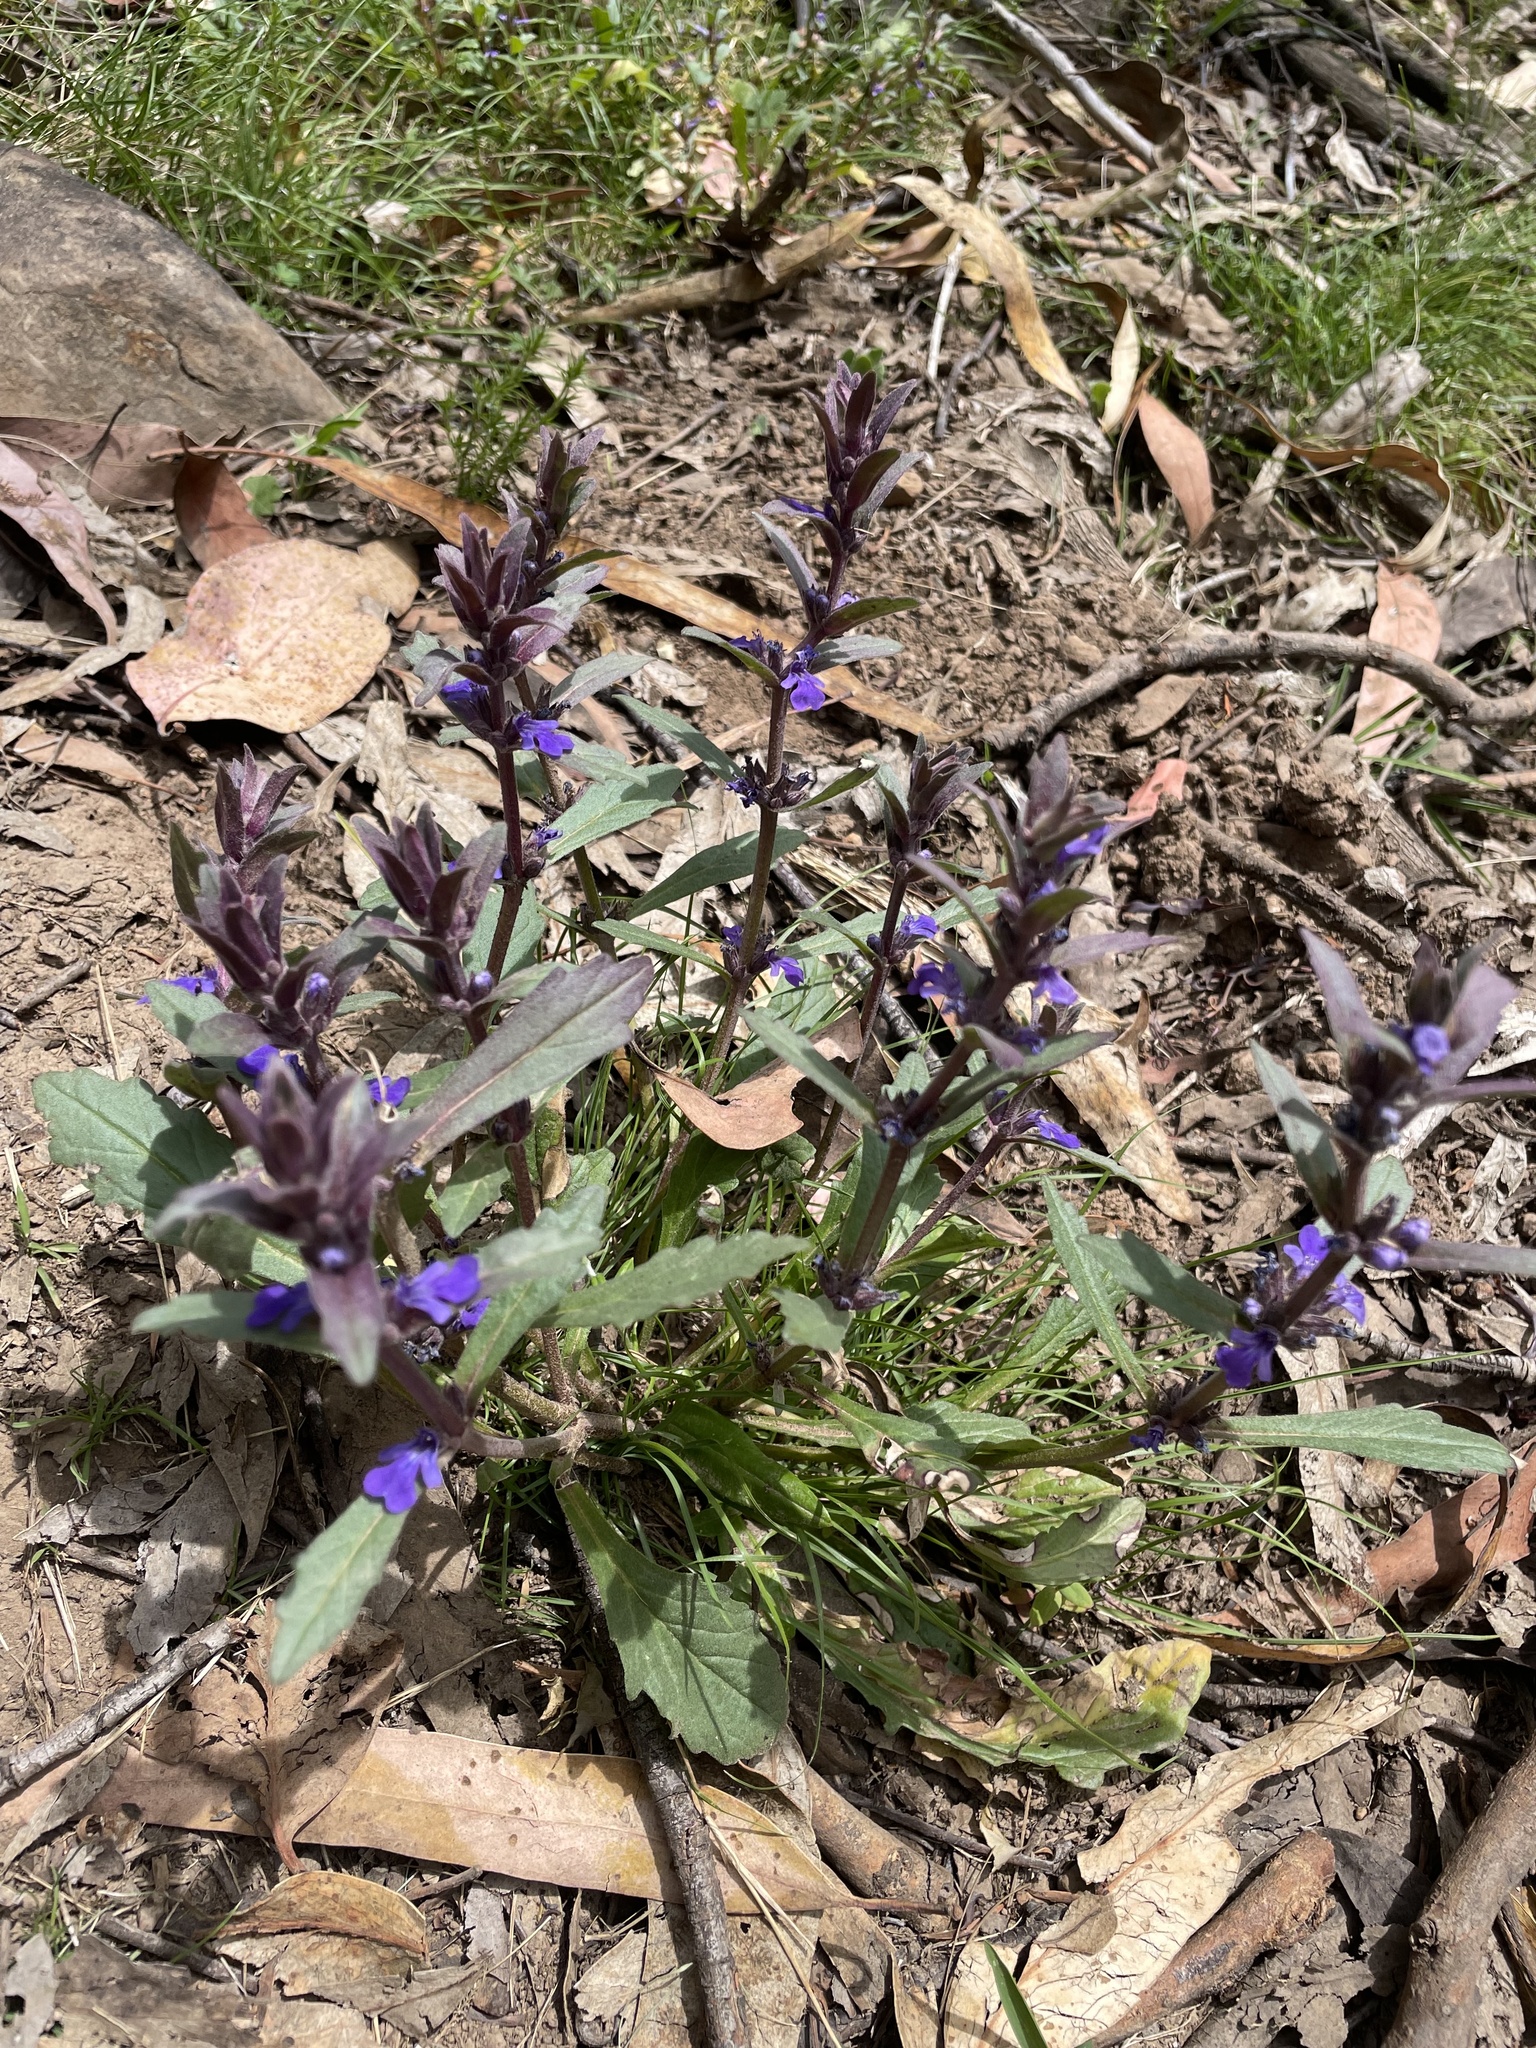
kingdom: Plantae
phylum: Tracheophyta
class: Magnoliopsida
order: Lamiales
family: Lamiaceae
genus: Ajuga
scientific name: Ajuga australis
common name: Australian bugle
